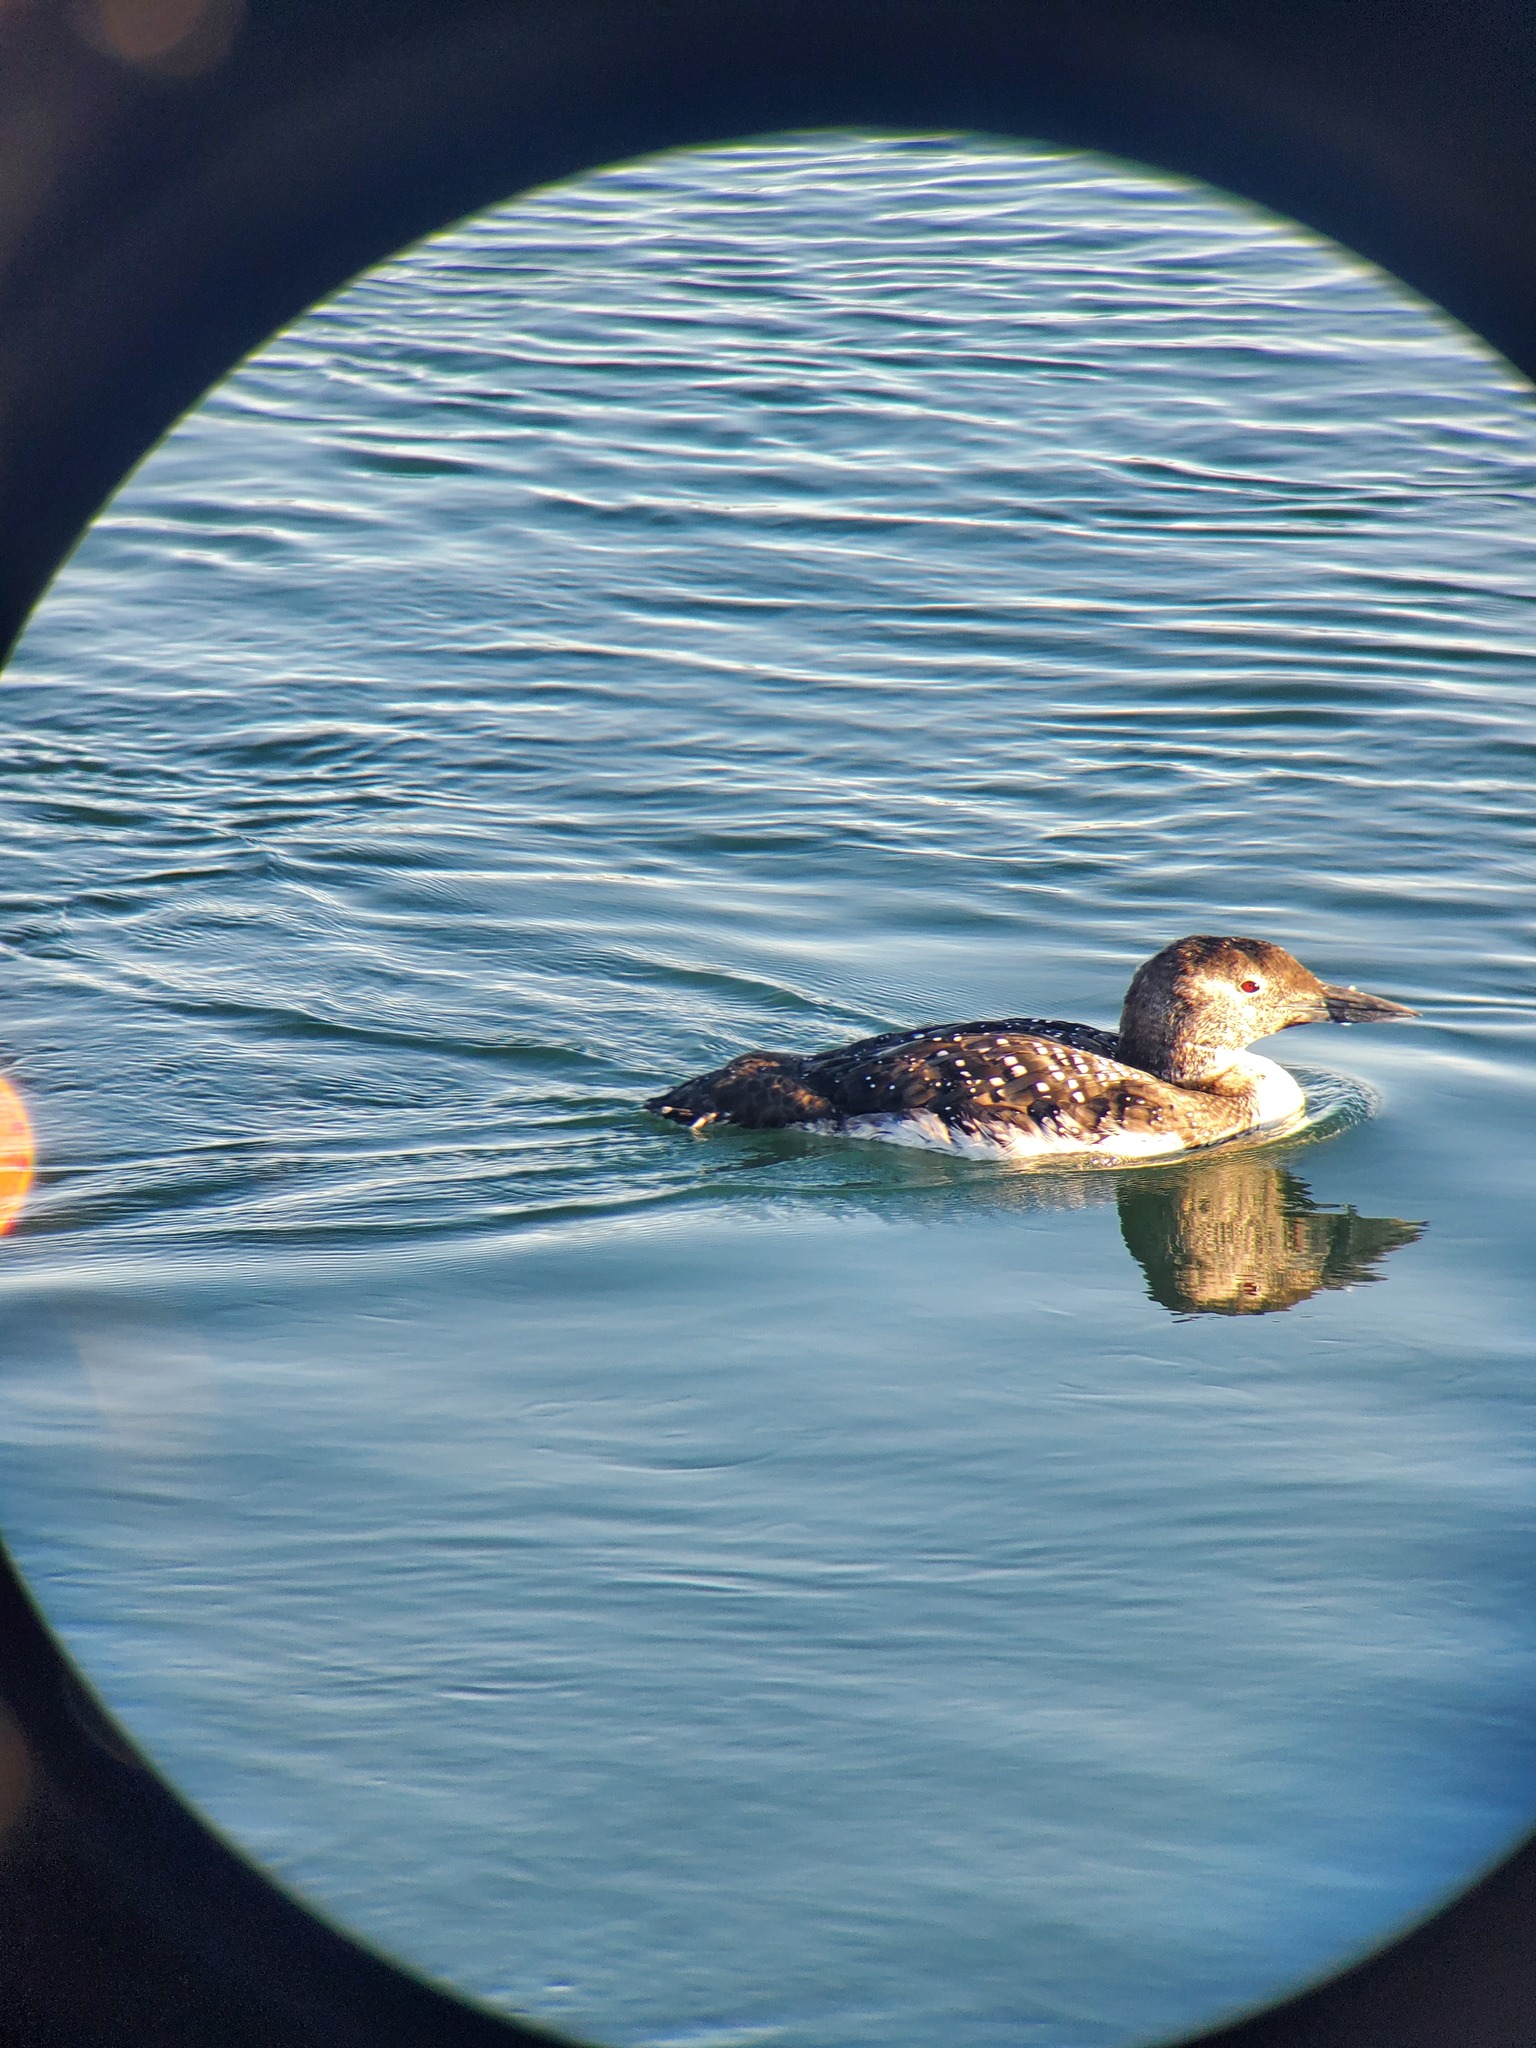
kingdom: Animalia
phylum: Chordata
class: Aves
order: Gaviiformes
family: Gaviidae
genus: Gavia
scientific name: Gavia immer
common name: Common loon
